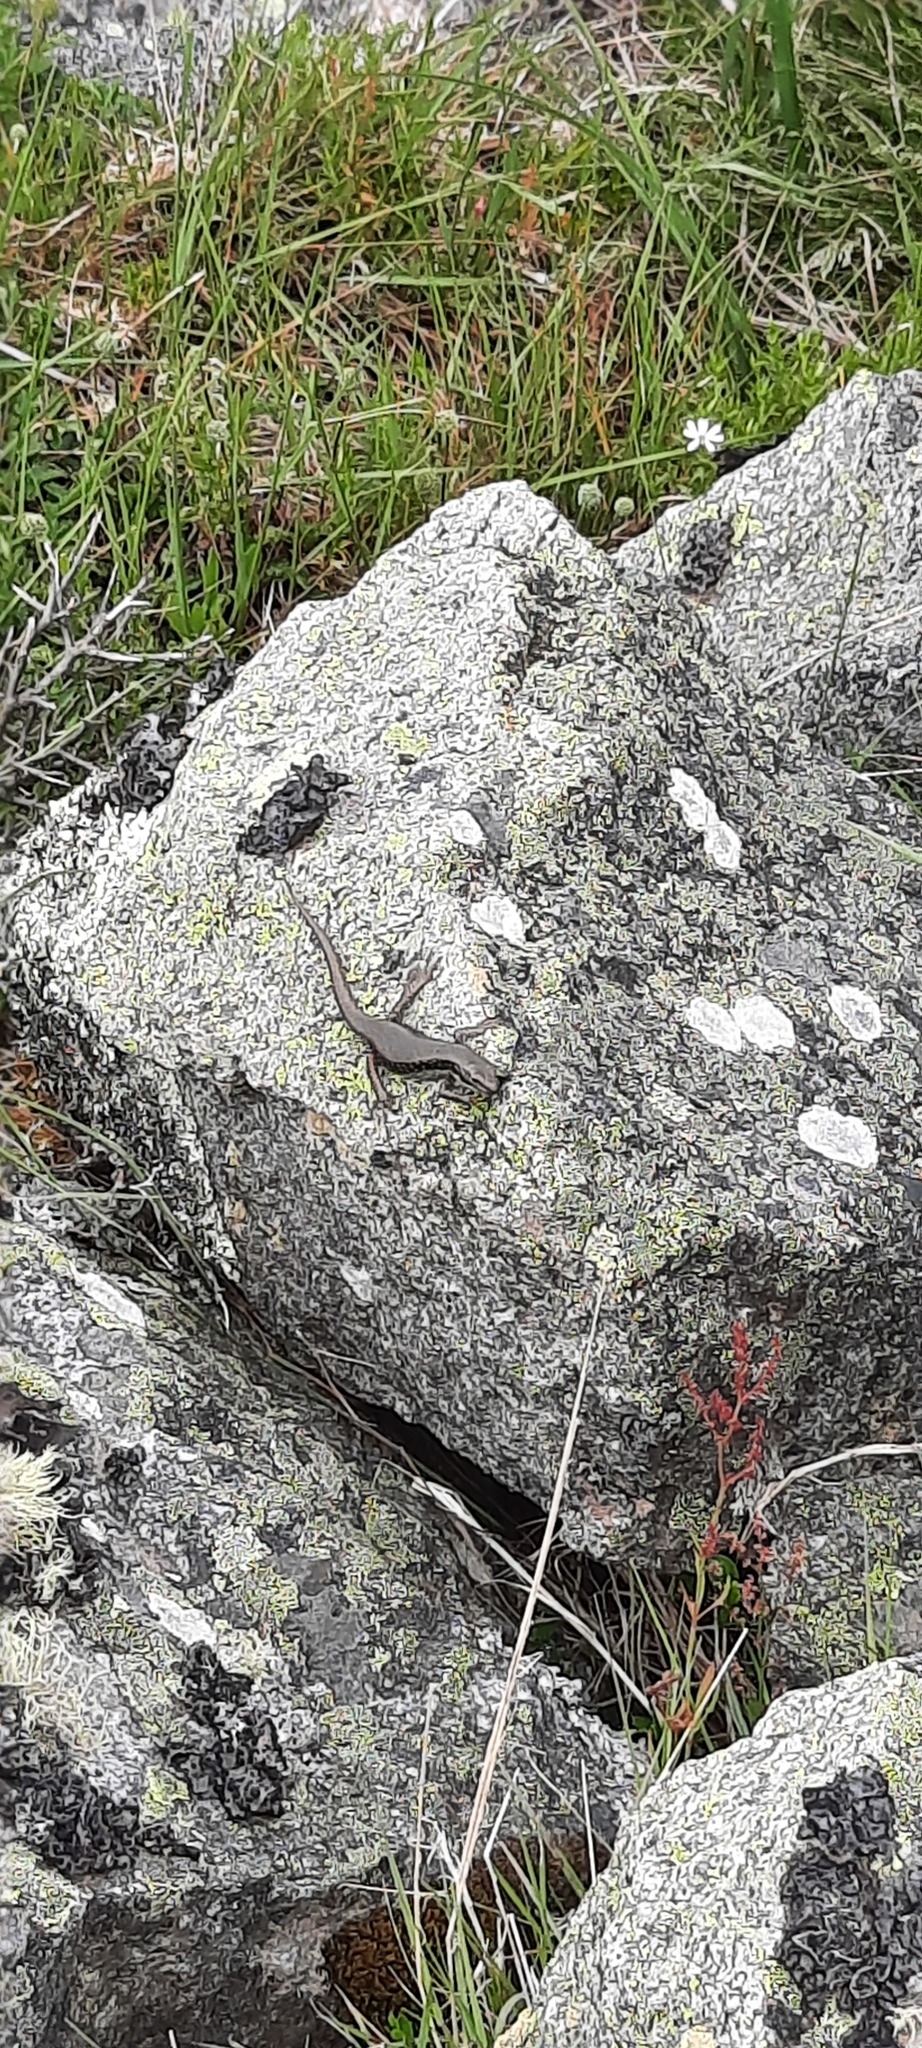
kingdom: Animalia
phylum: Chordata
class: Squamata
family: Scincidae
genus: Eulamprus
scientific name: Eulamprus tympanum
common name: Cool-temperate water-skink
